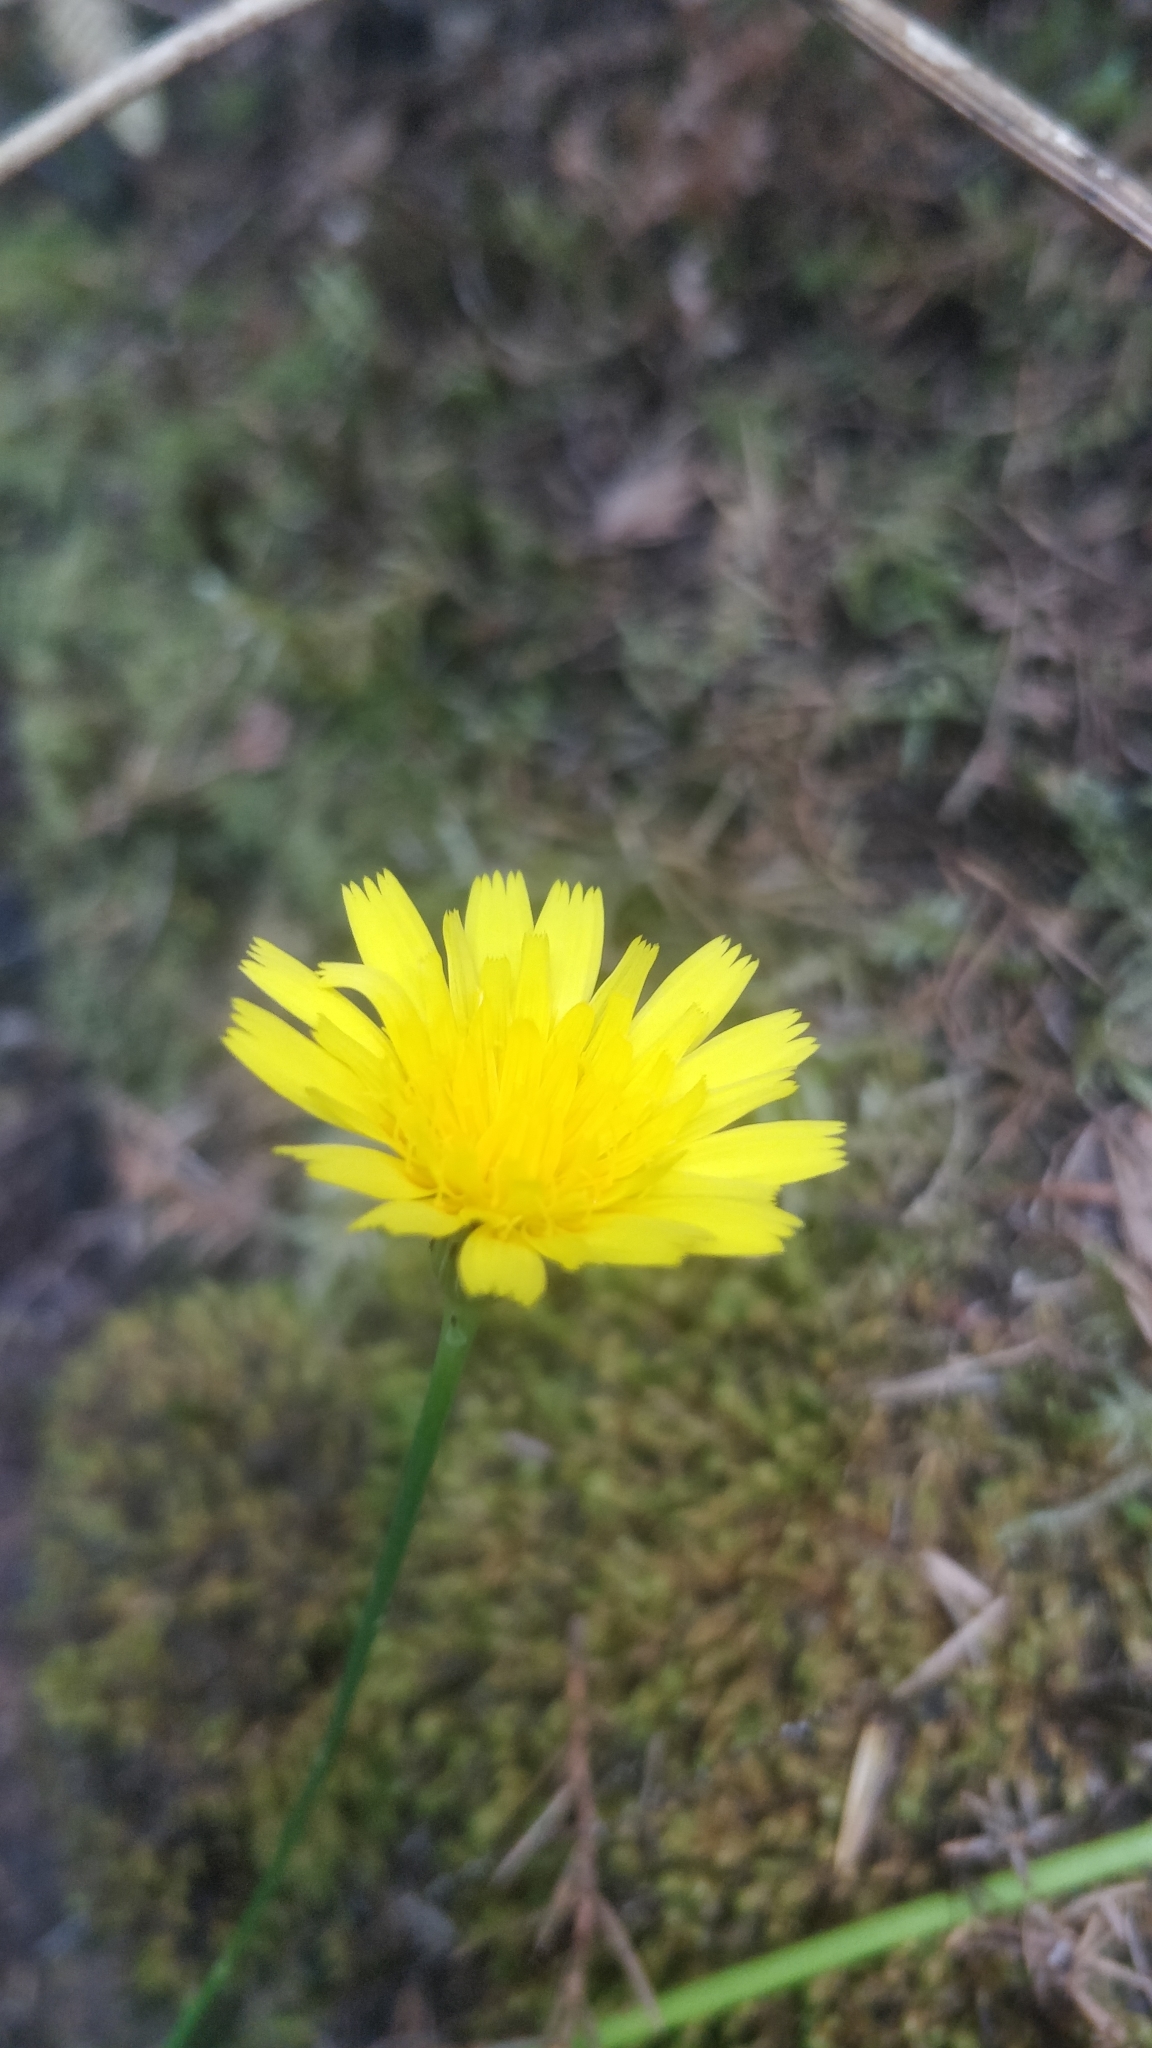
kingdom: Plantae
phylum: Tracheophyta
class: Magnoliopsida
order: Asterales
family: Asteraceae
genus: Hypochaeris
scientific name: Hypochaeris radicata
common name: Flatweed
